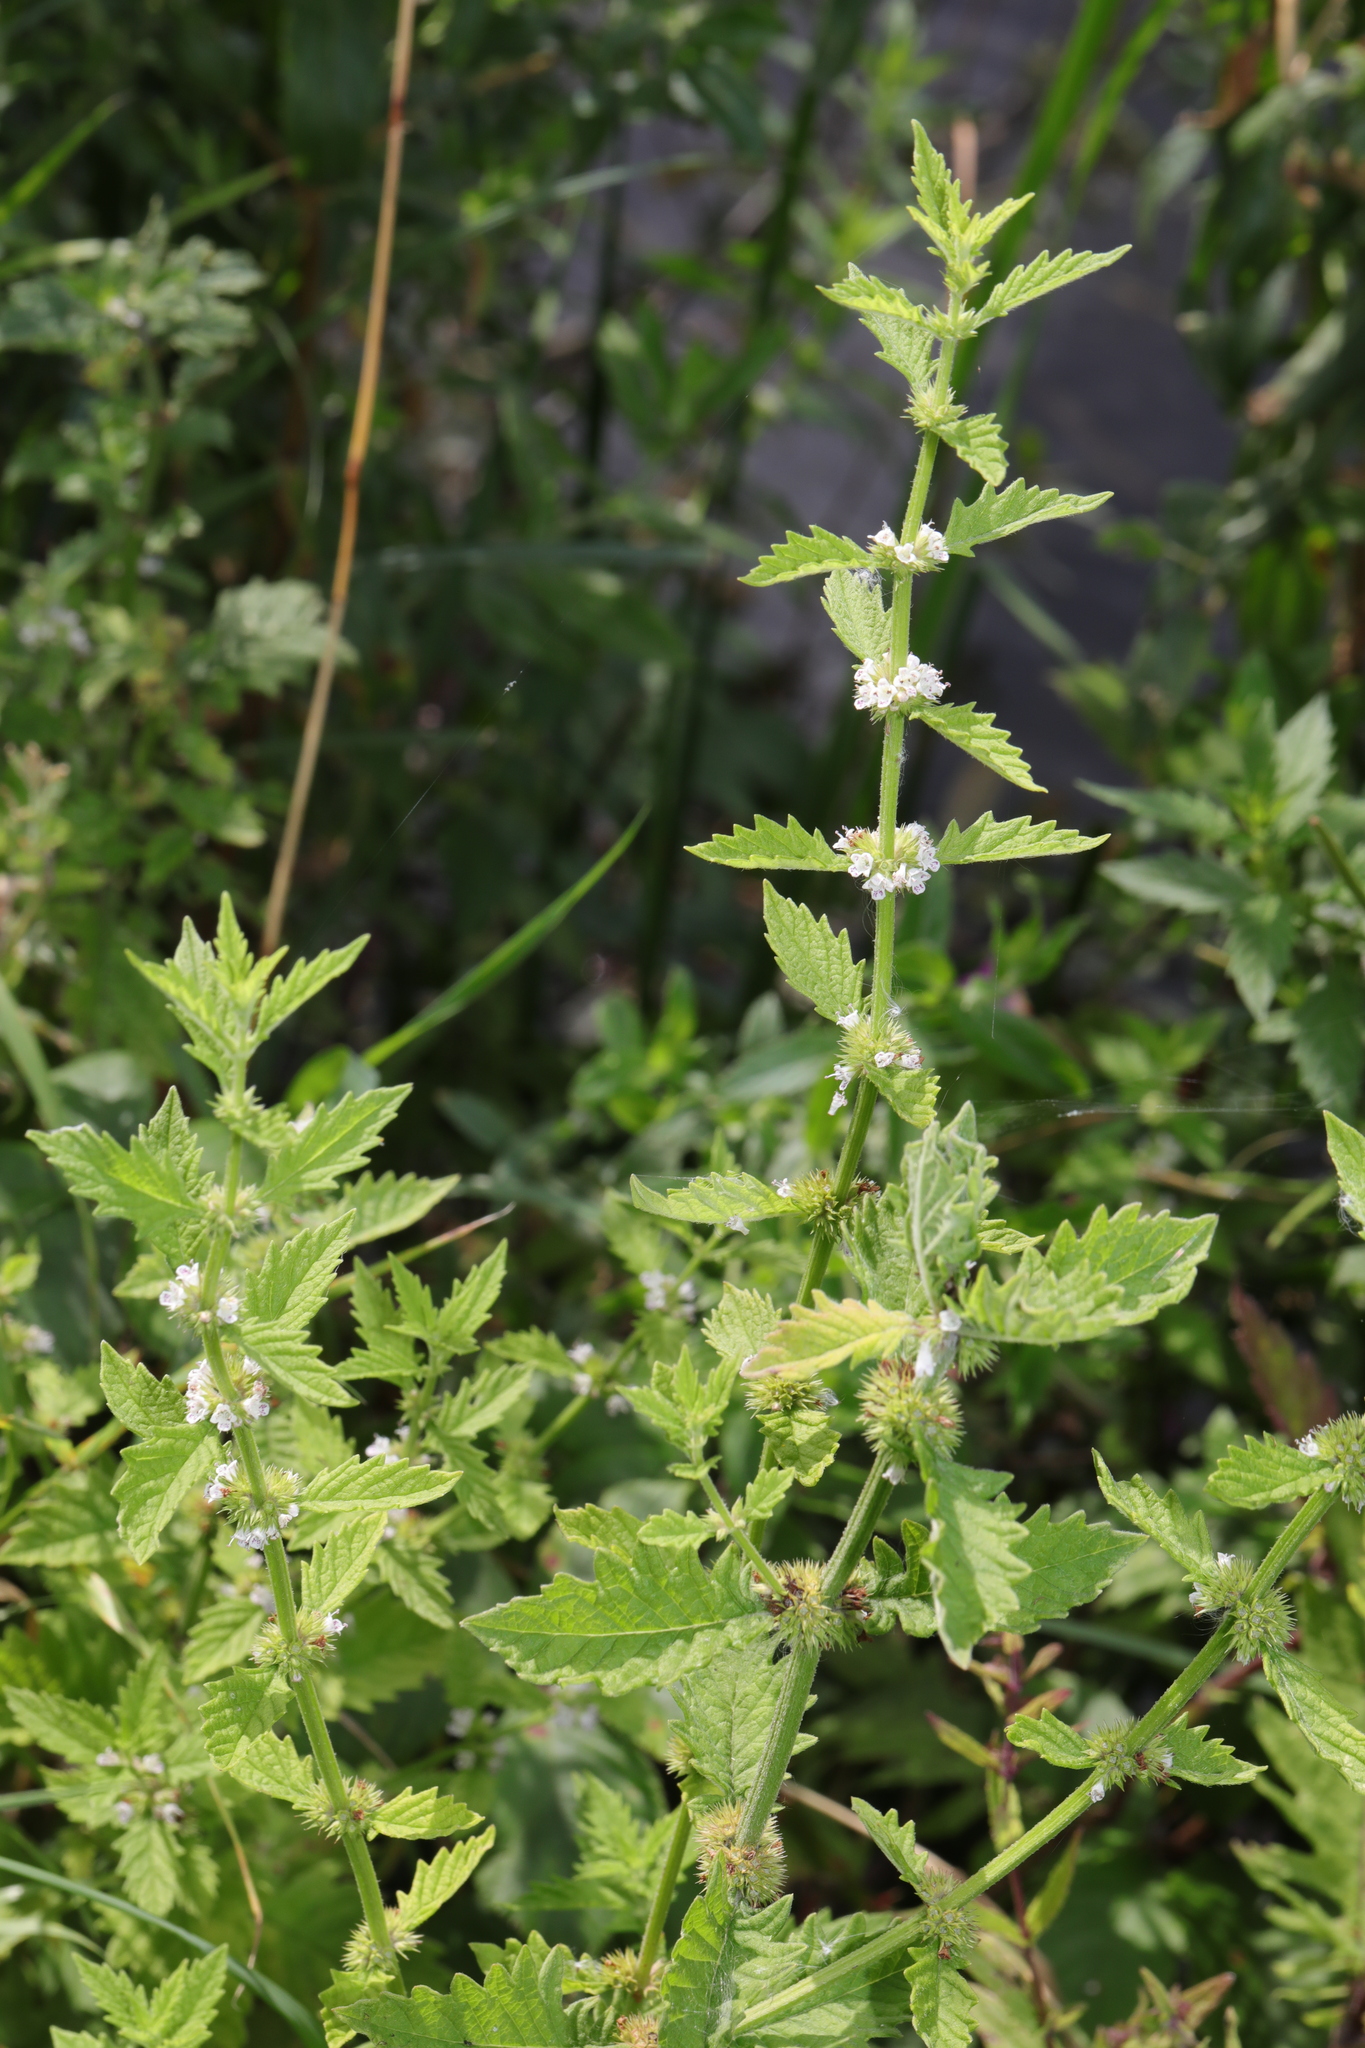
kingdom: Plantae
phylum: Tracheophyta
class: Magnoliopsida
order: Lamiales
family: Lamiaceae
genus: Lycopus
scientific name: Lycopus europaeus
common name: European bugleweed
